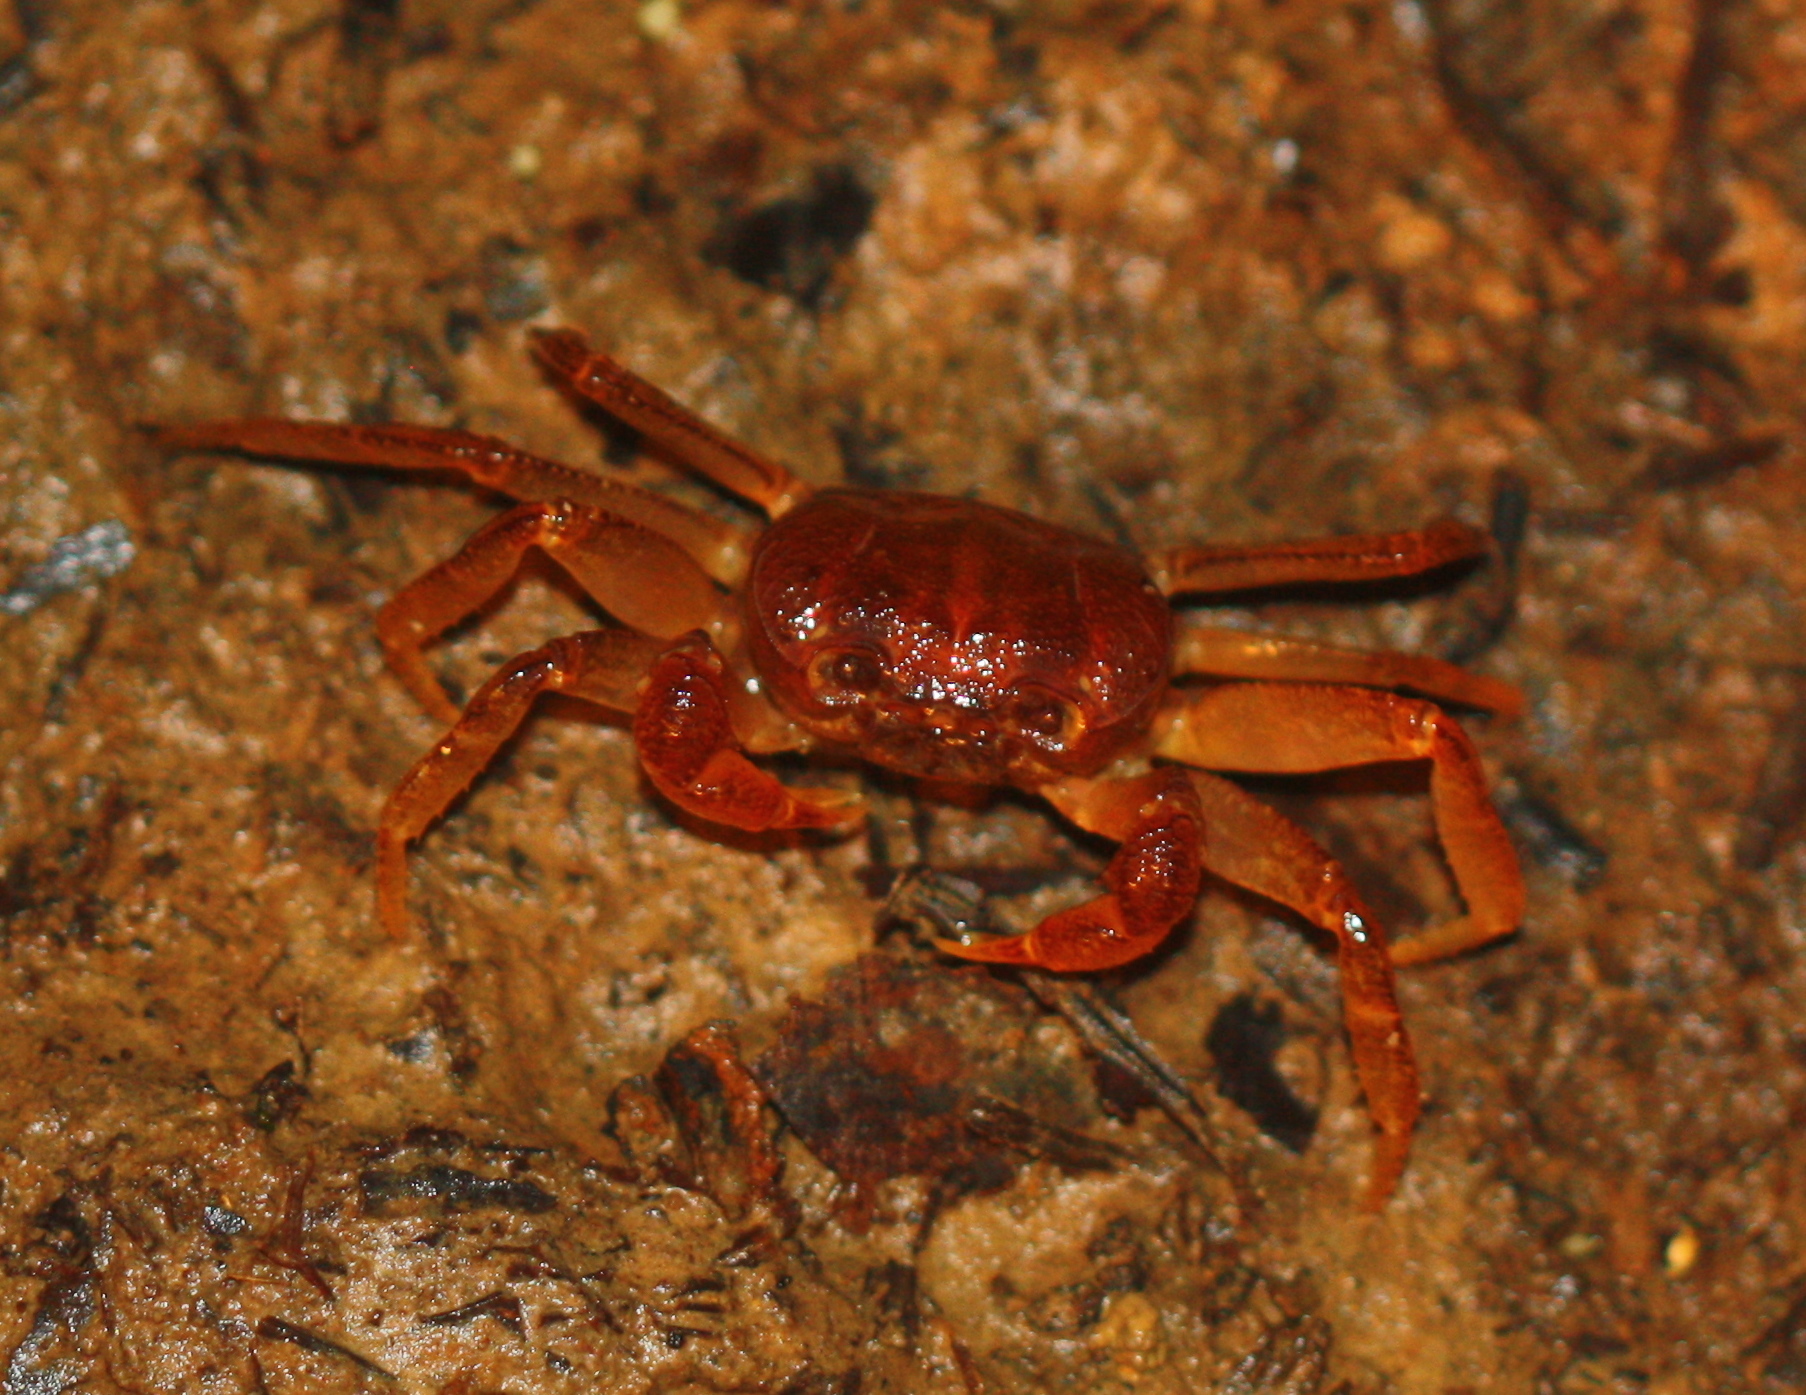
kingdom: Animalia
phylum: Arthropoda
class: Malacostraca
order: Decapoda
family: Gecarcinucidae
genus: Thelphusula
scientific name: Thelphusula dicerophilus
